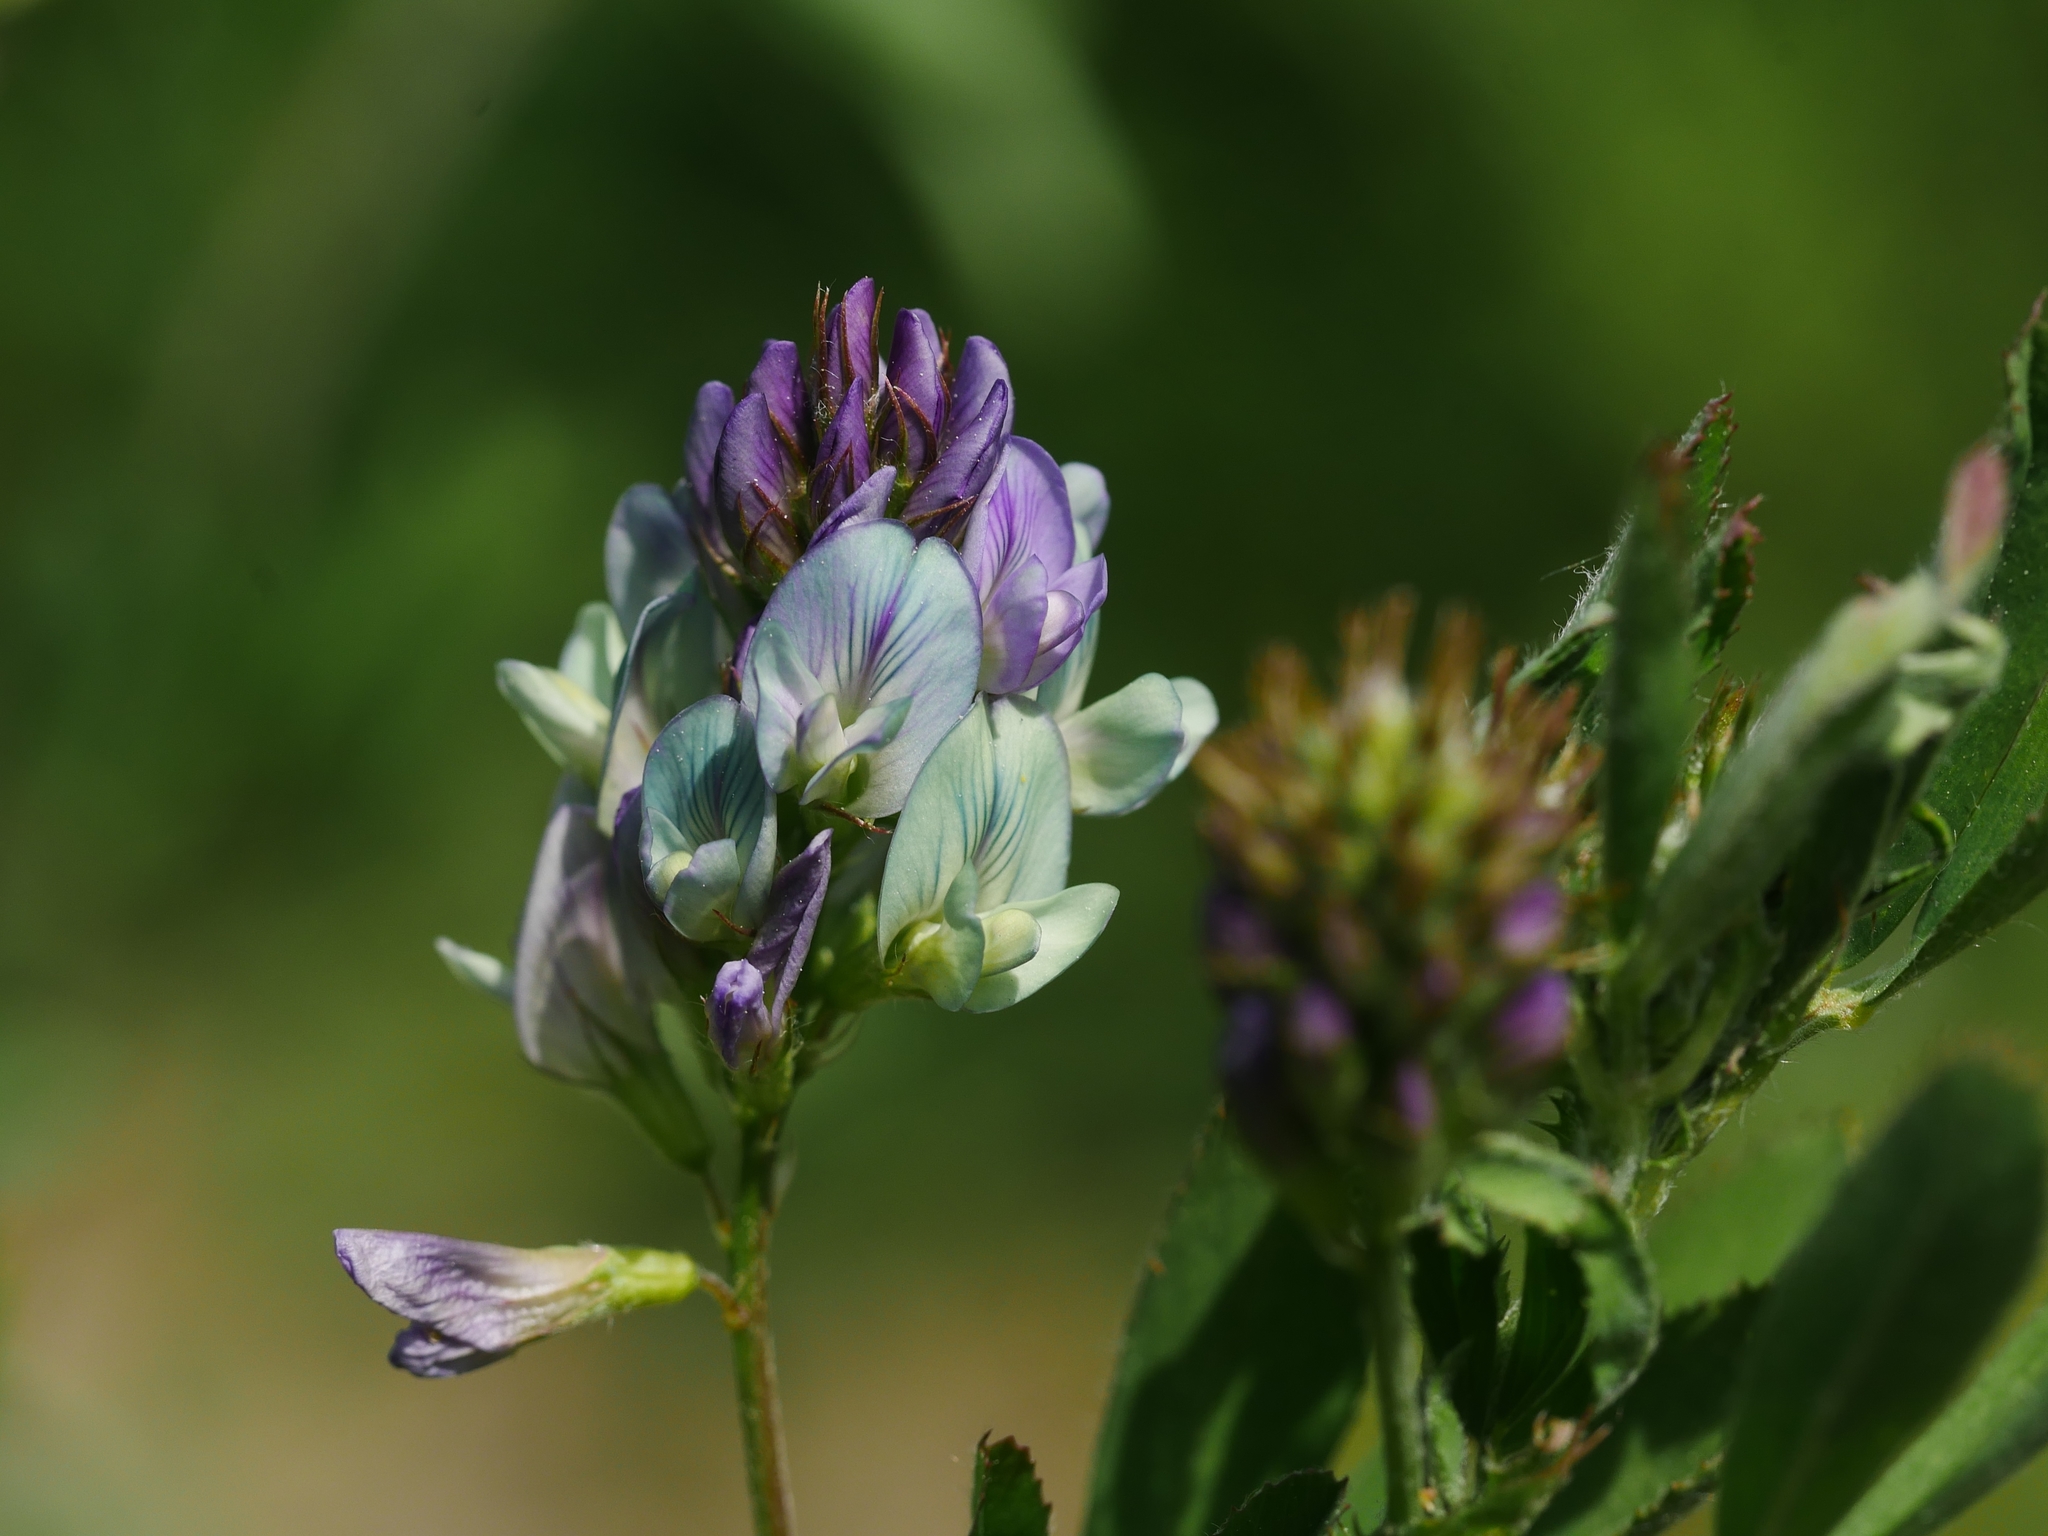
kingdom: Plantae
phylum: Tracheophyta
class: Magnoliopsida
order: Fabales
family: Fabaceae
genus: Medicago
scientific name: Medicago varia
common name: Sand lucerne
